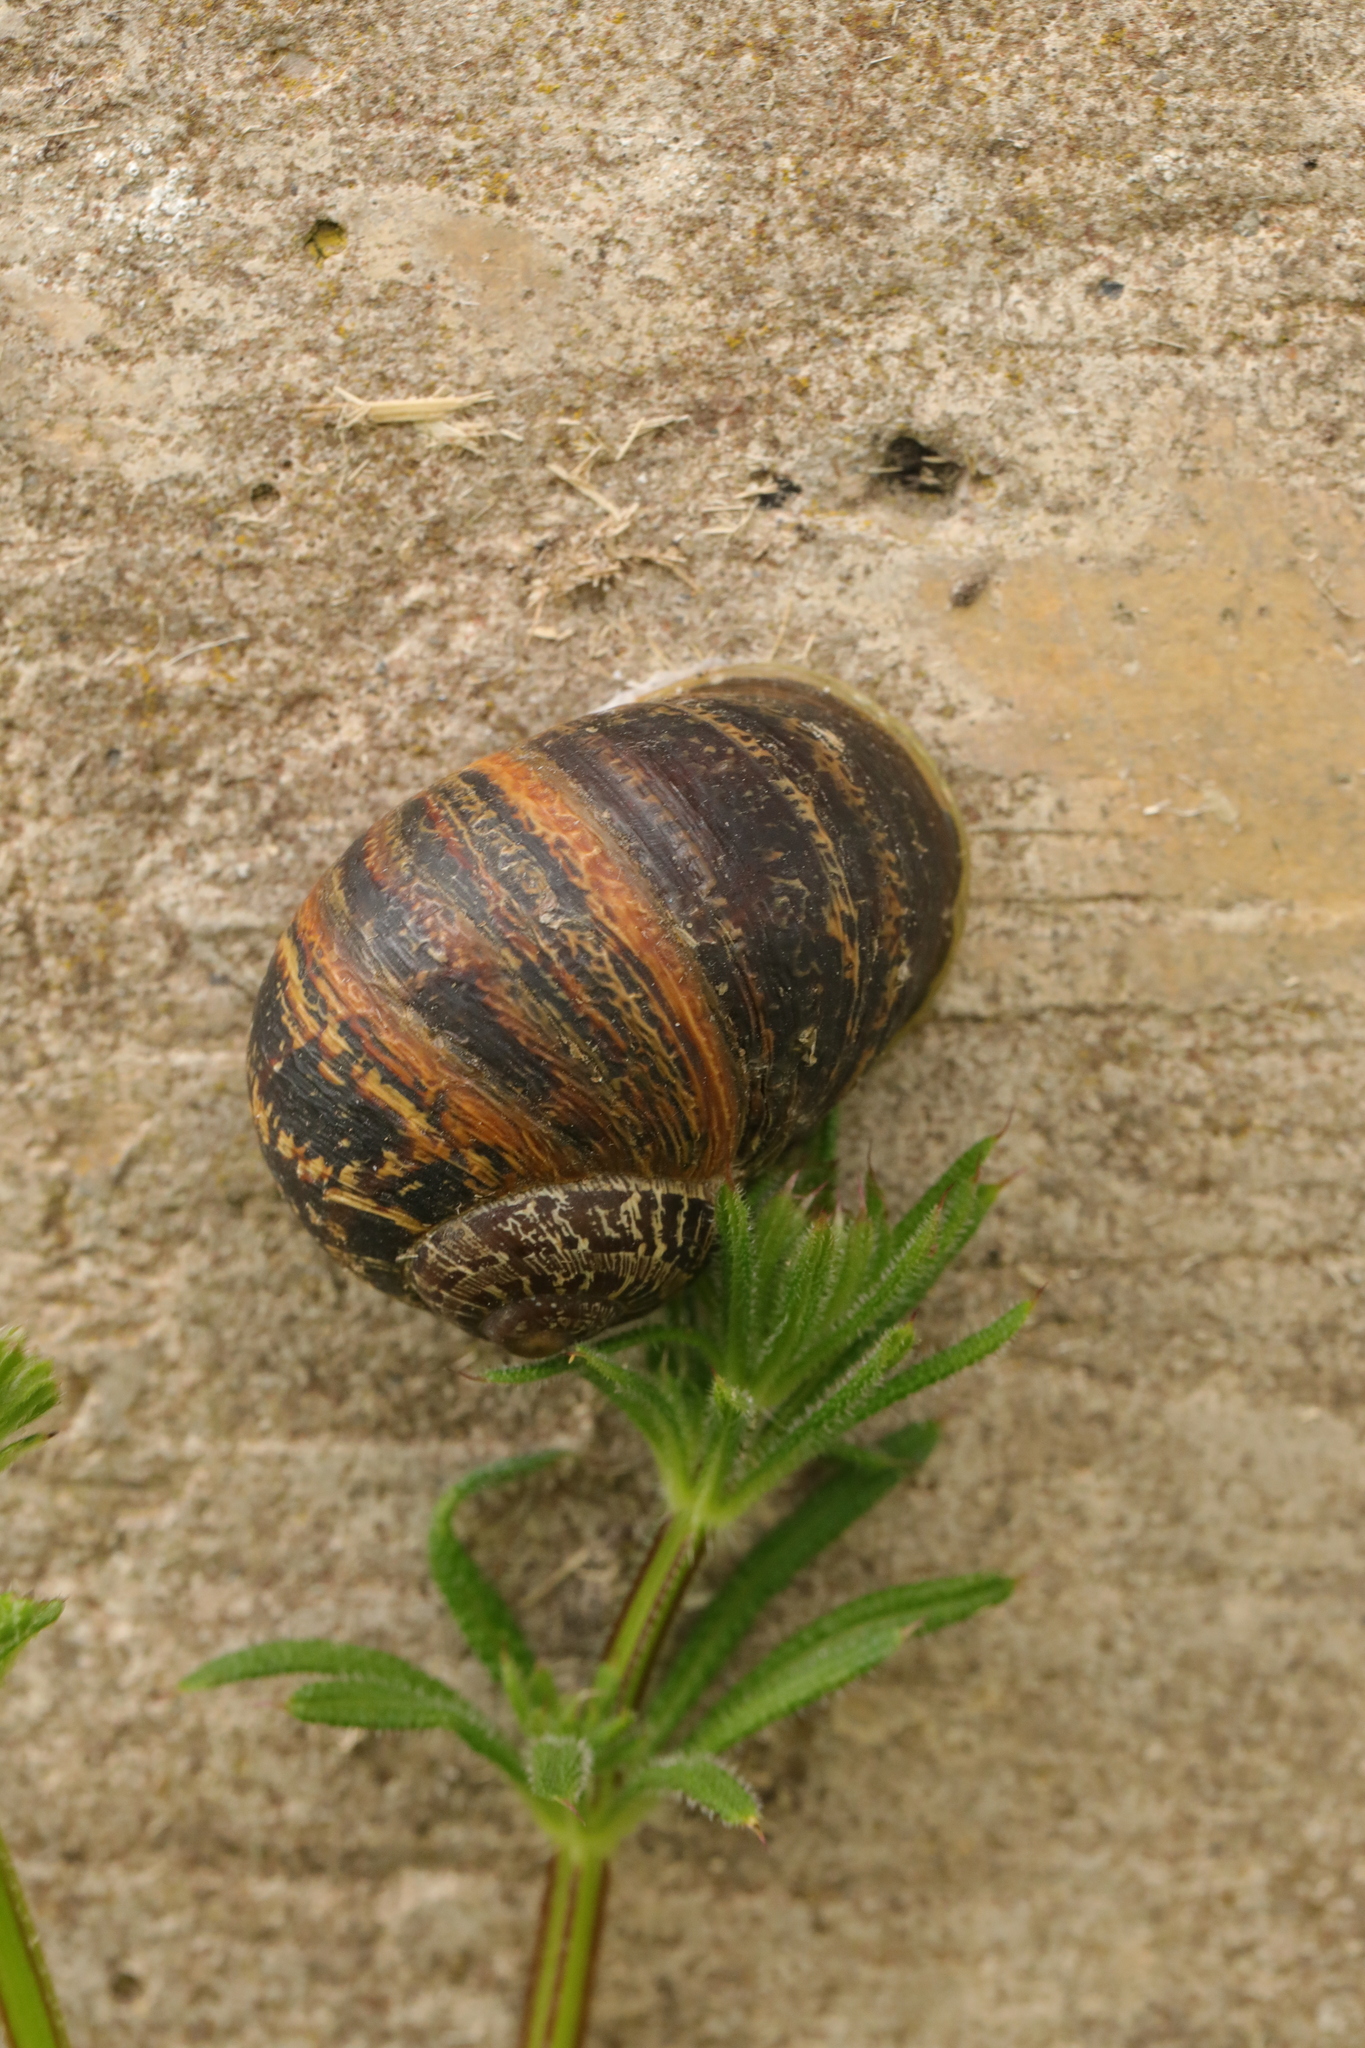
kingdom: Animalia
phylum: Mollusca
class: Gastropoda
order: Stylommatophora
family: Helicidae
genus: Cornu
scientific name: Cornu aspersum
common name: Brown garden snail
